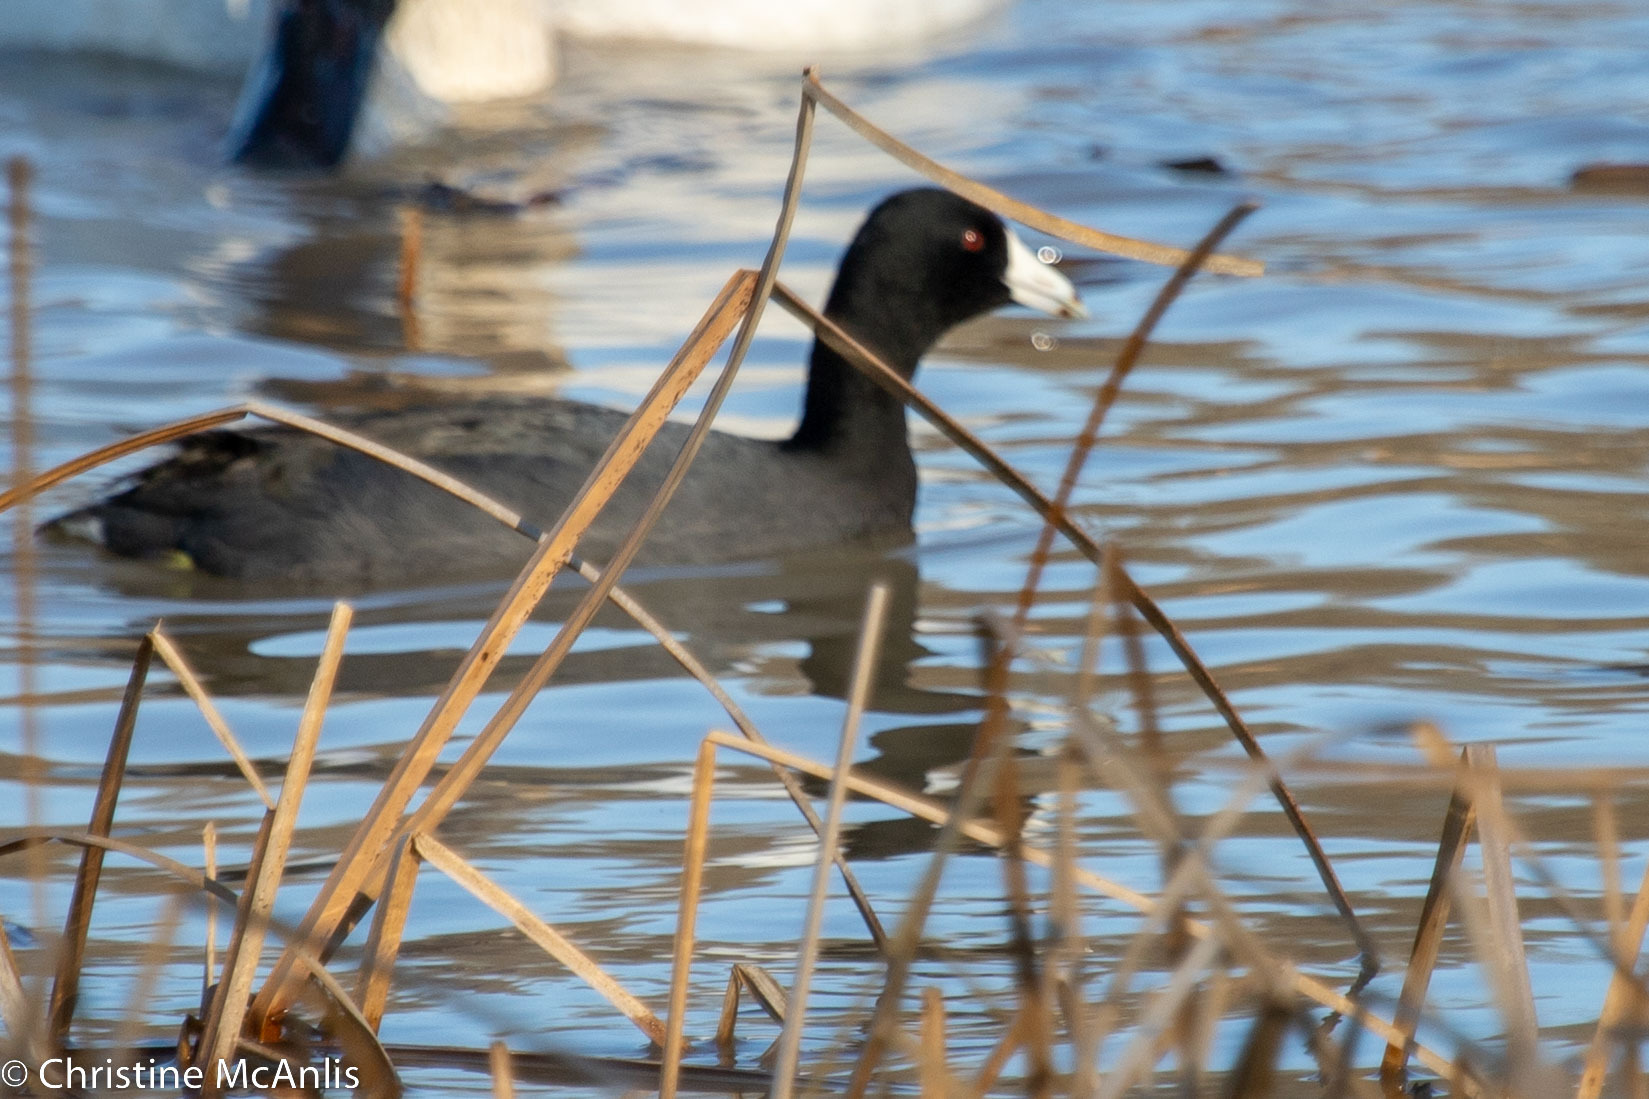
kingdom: Animalia
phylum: Chordata
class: Aves
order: Gruiformes
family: Rallidae
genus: Fulica
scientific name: Fulica americana
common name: American coot
